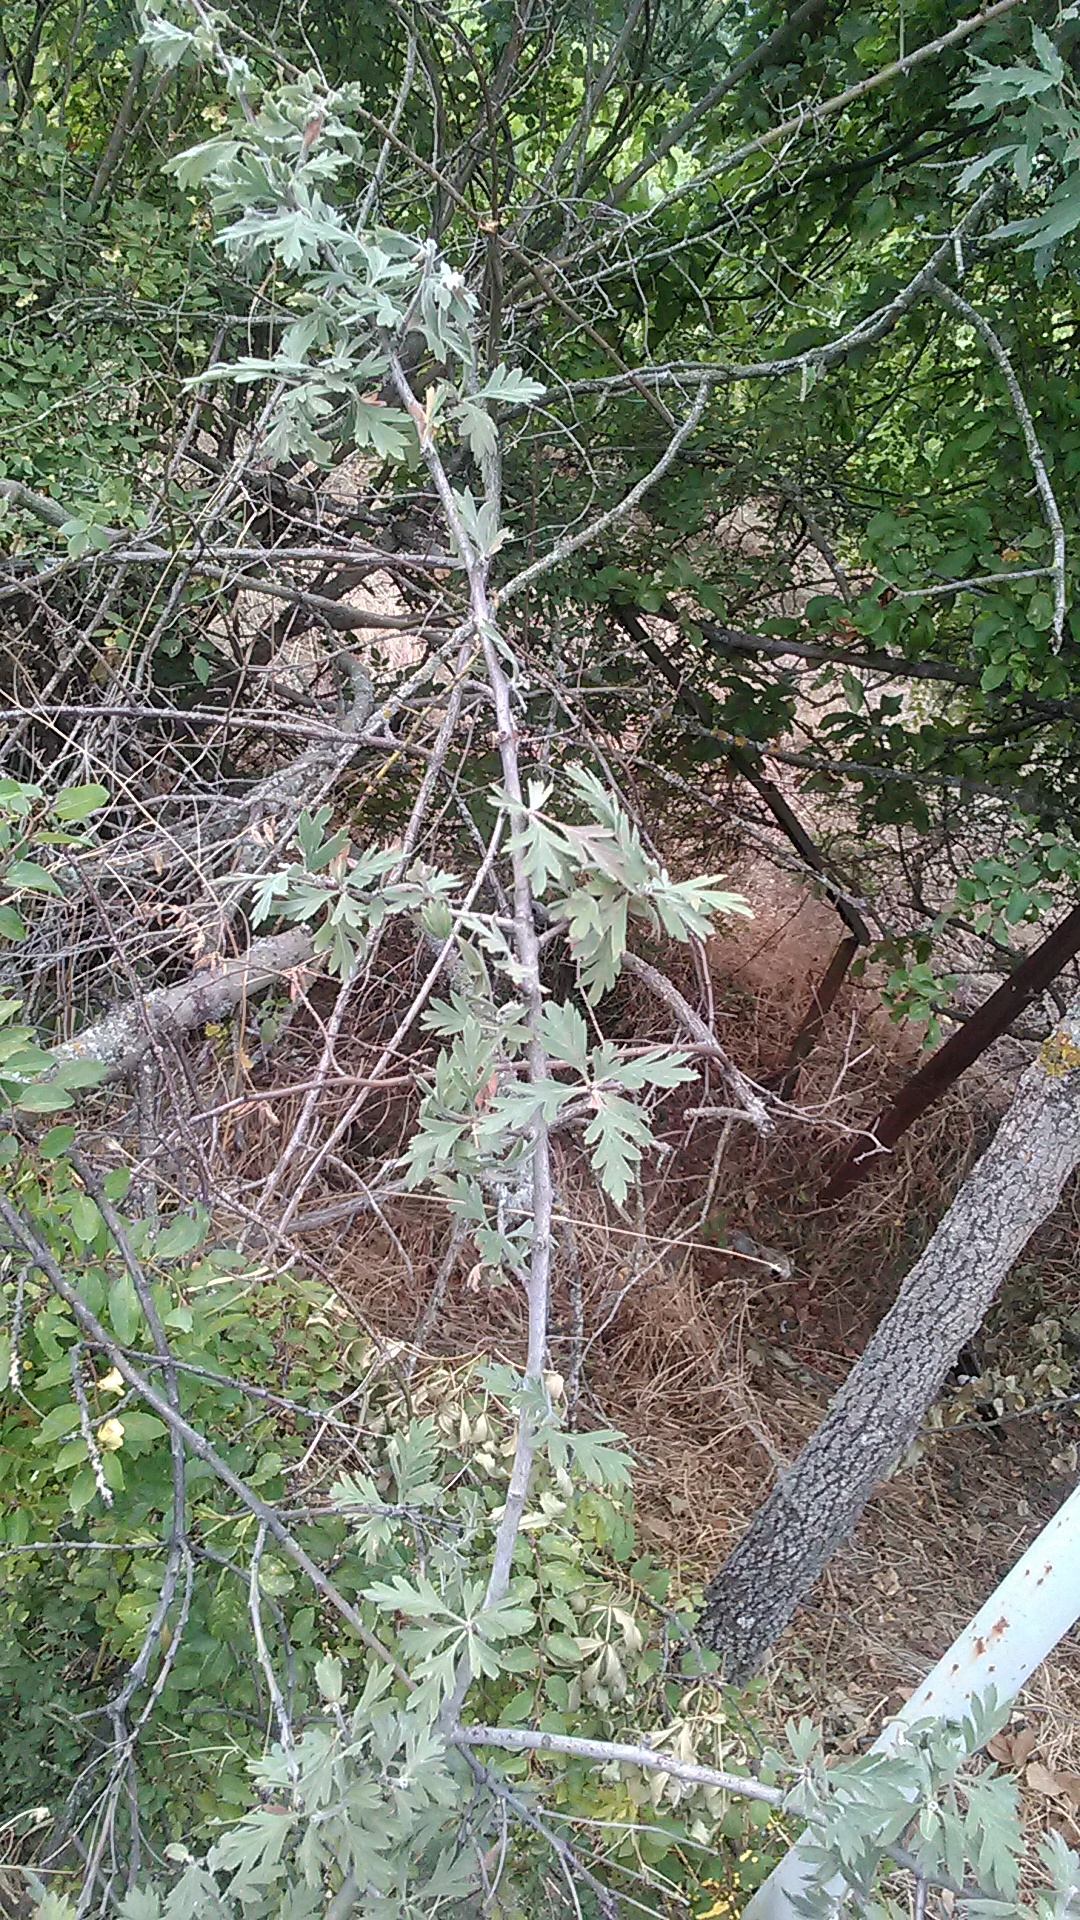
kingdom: Plantae
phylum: Tracheophyta
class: Magnoliopsida
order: Rosales
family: Rosaceae
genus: Crataegus
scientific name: Crataegus orientalis
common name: Oriental hawthorn
